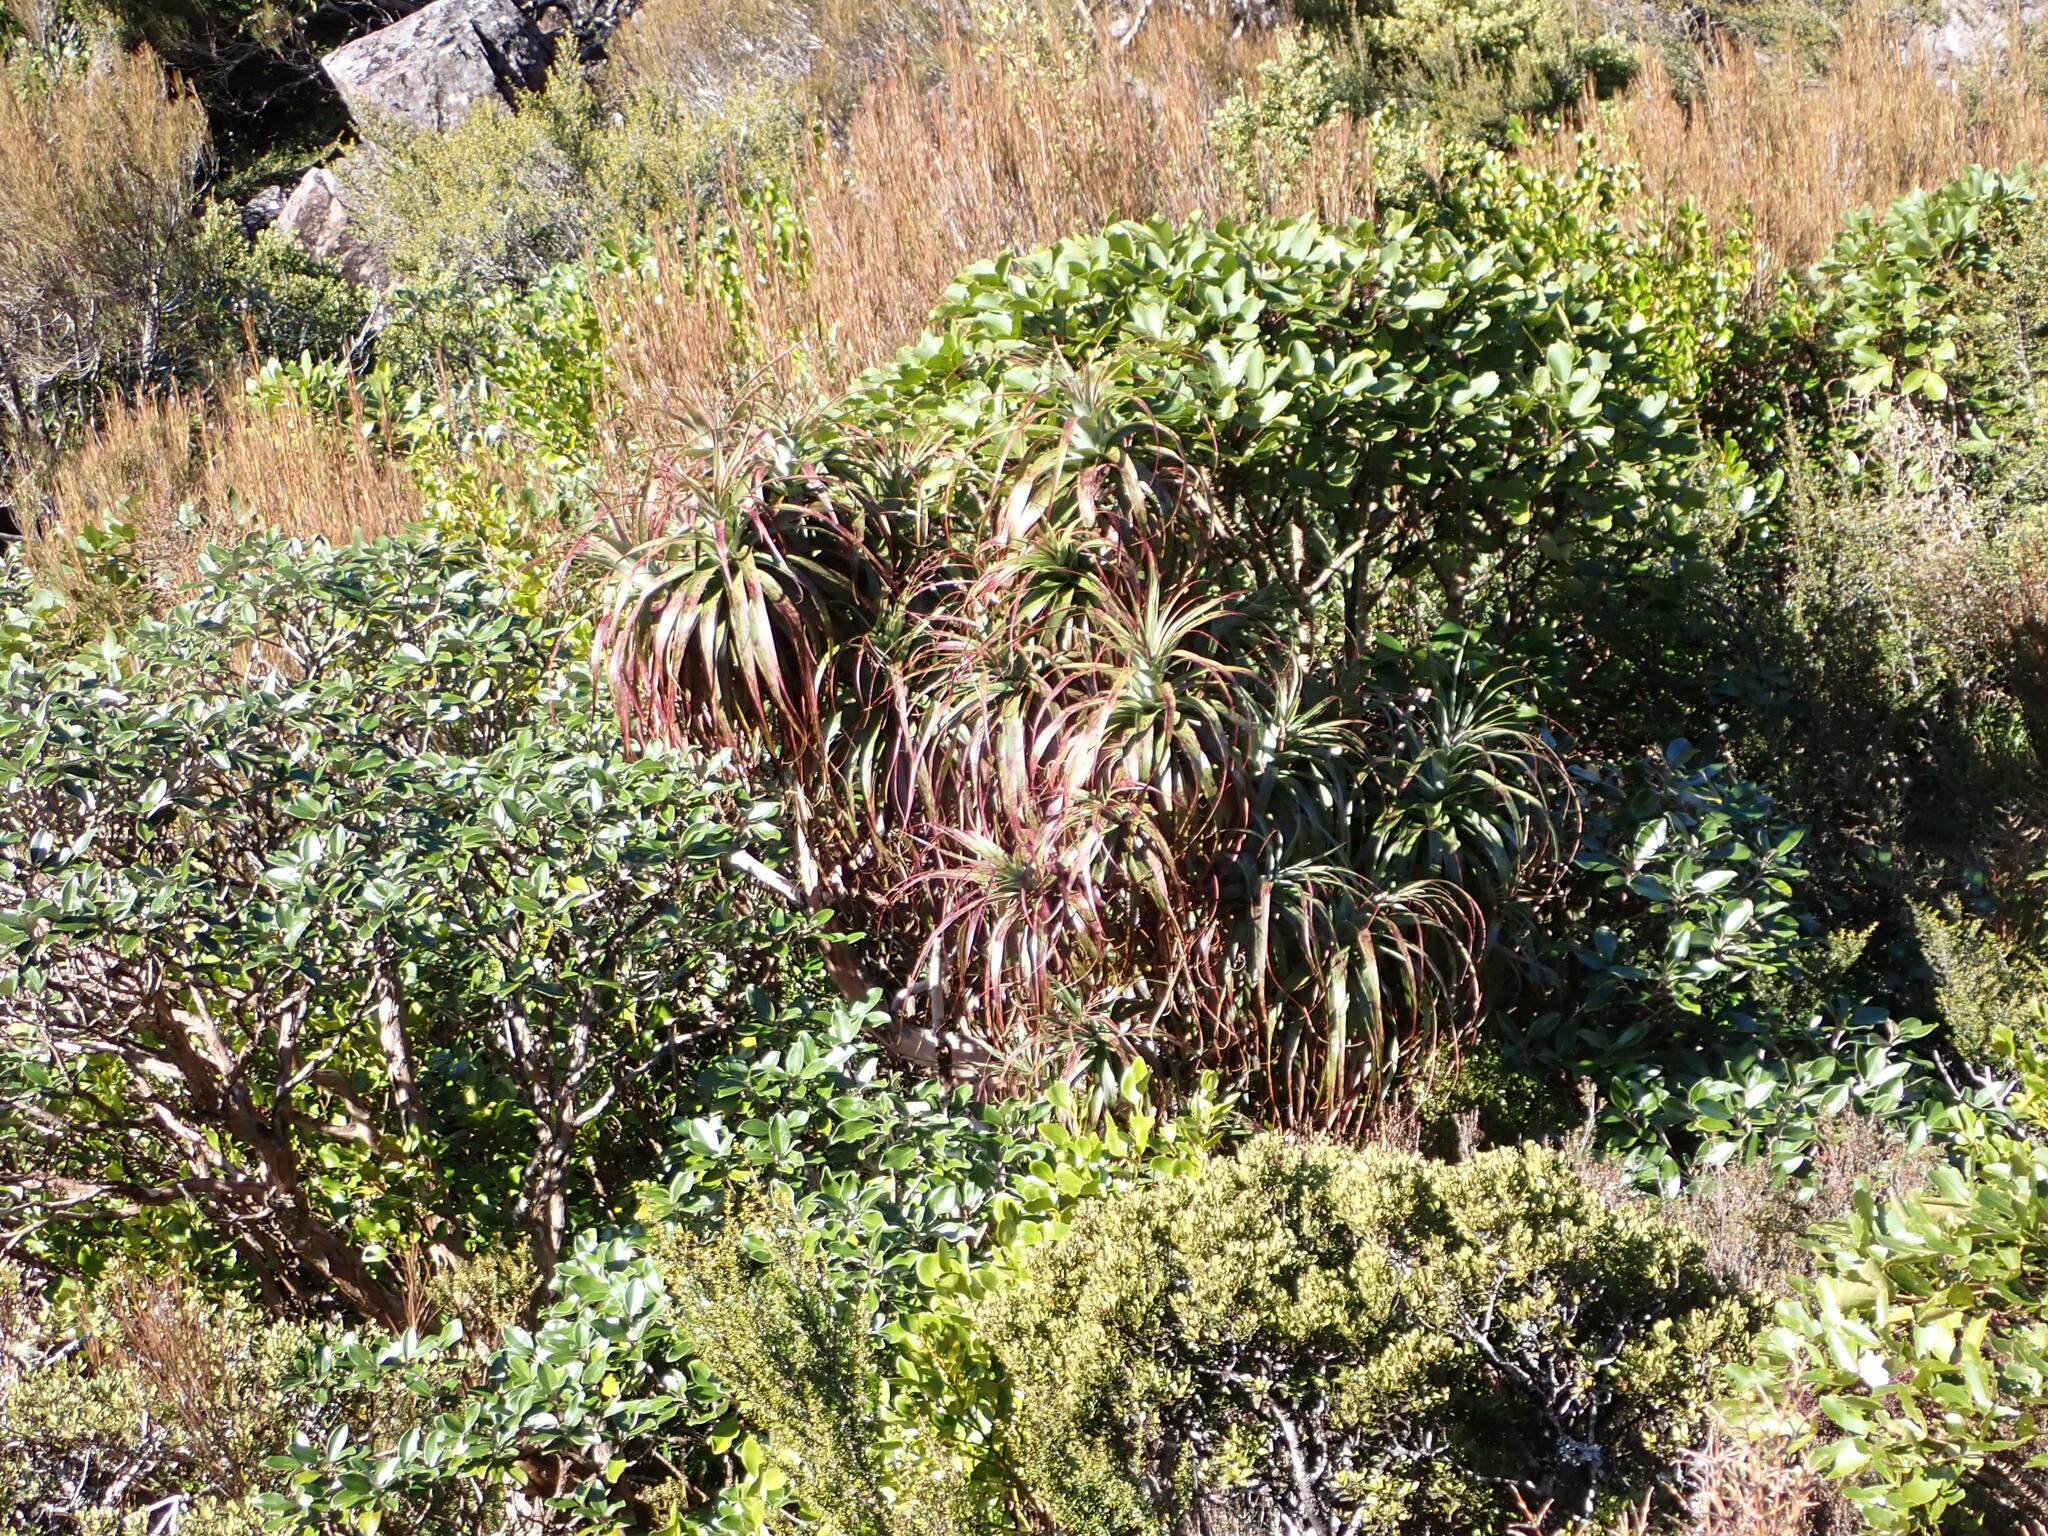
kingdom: Plantae
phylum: Tracheophyta
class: Magnoliopsida
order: Ericales
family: Ericaceae
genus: Dracophyllum
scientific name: Dracophyllum traversii
